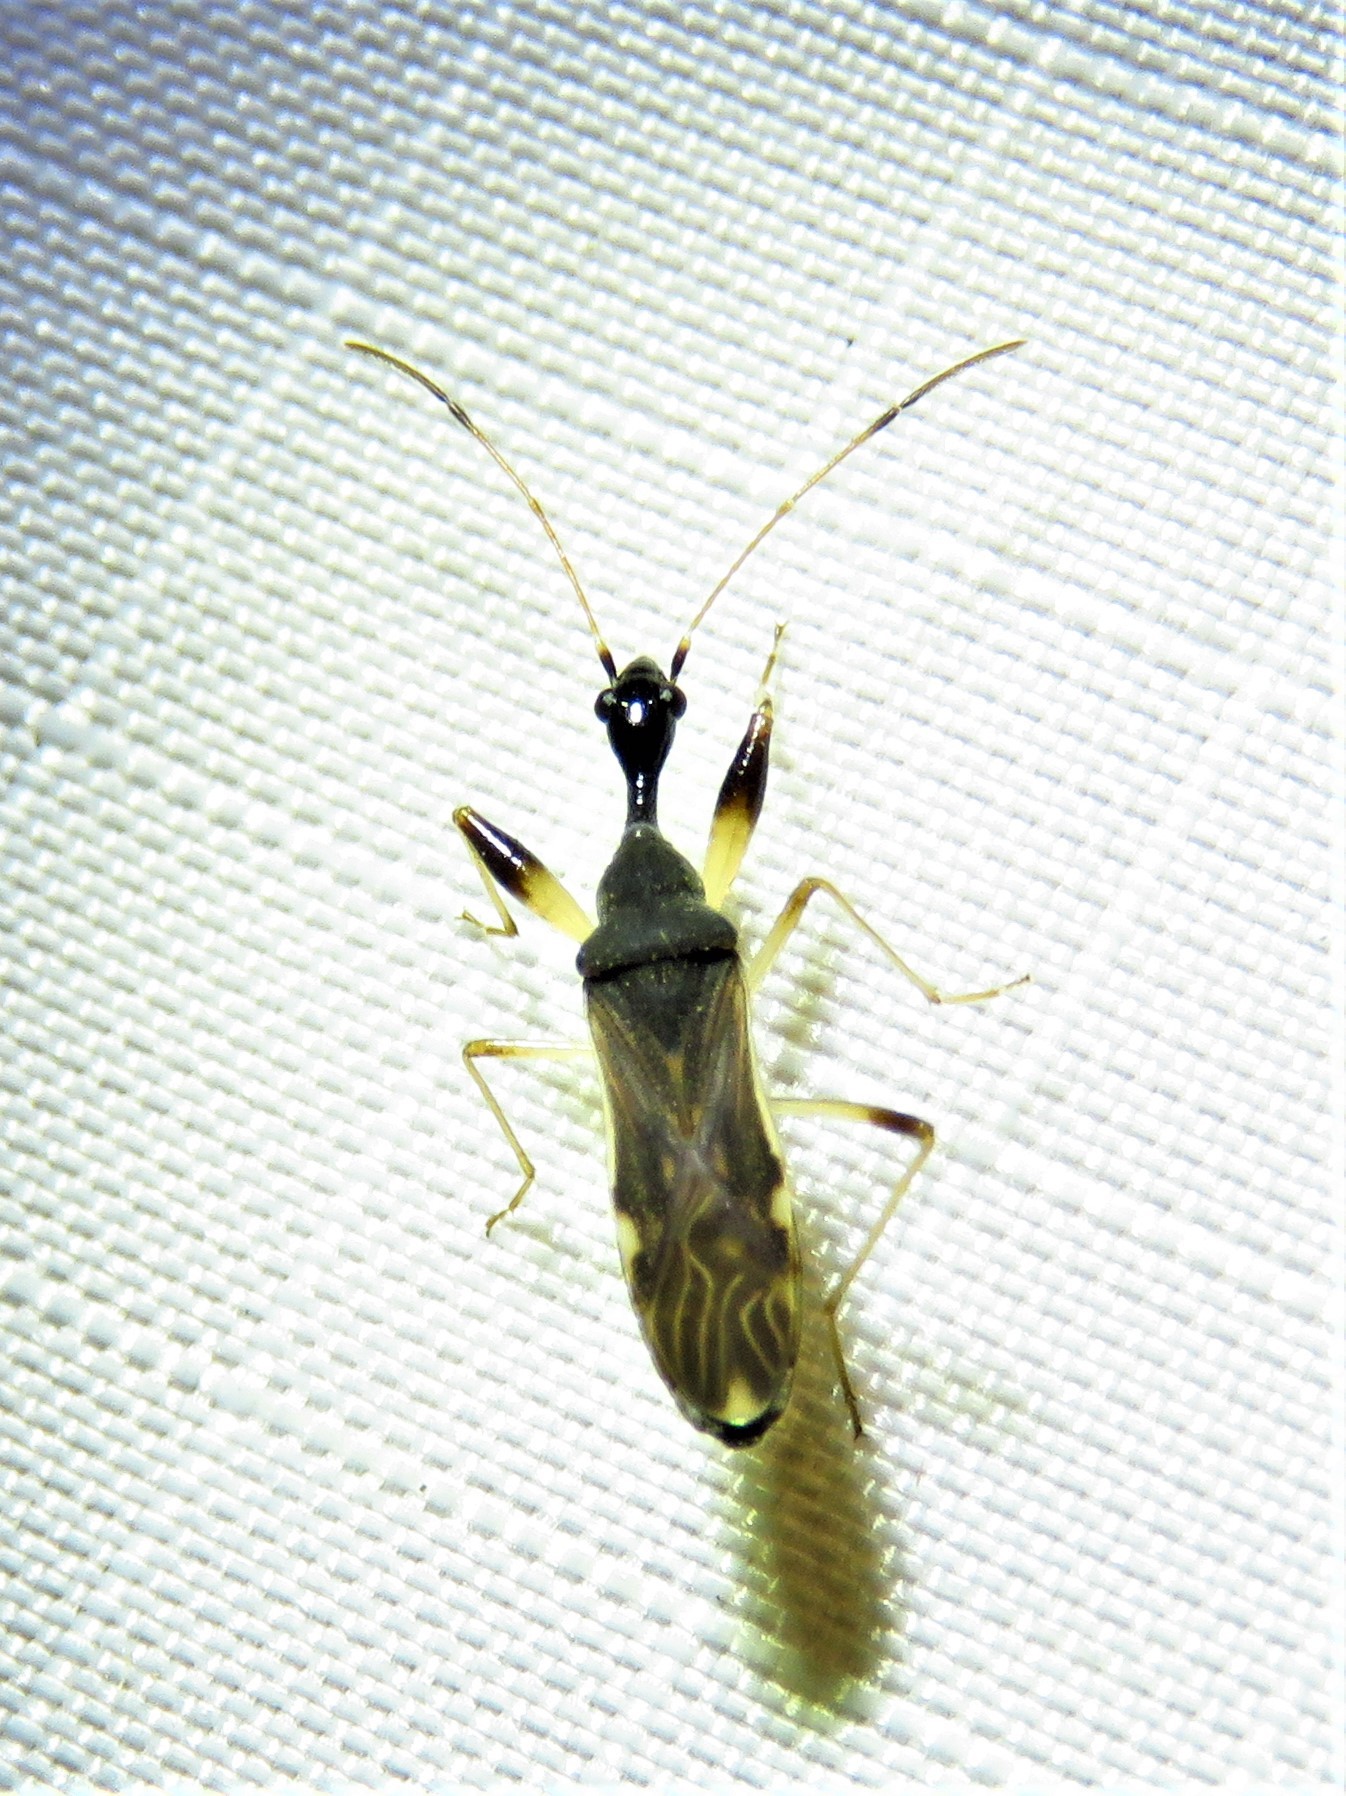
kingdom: Animalia
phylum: Arthropoda
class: Insecta
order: Hemiptera
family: Rhyparochromidae
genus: Myodocha
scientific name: Myodocha serripes
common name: Long-necked seed bug
